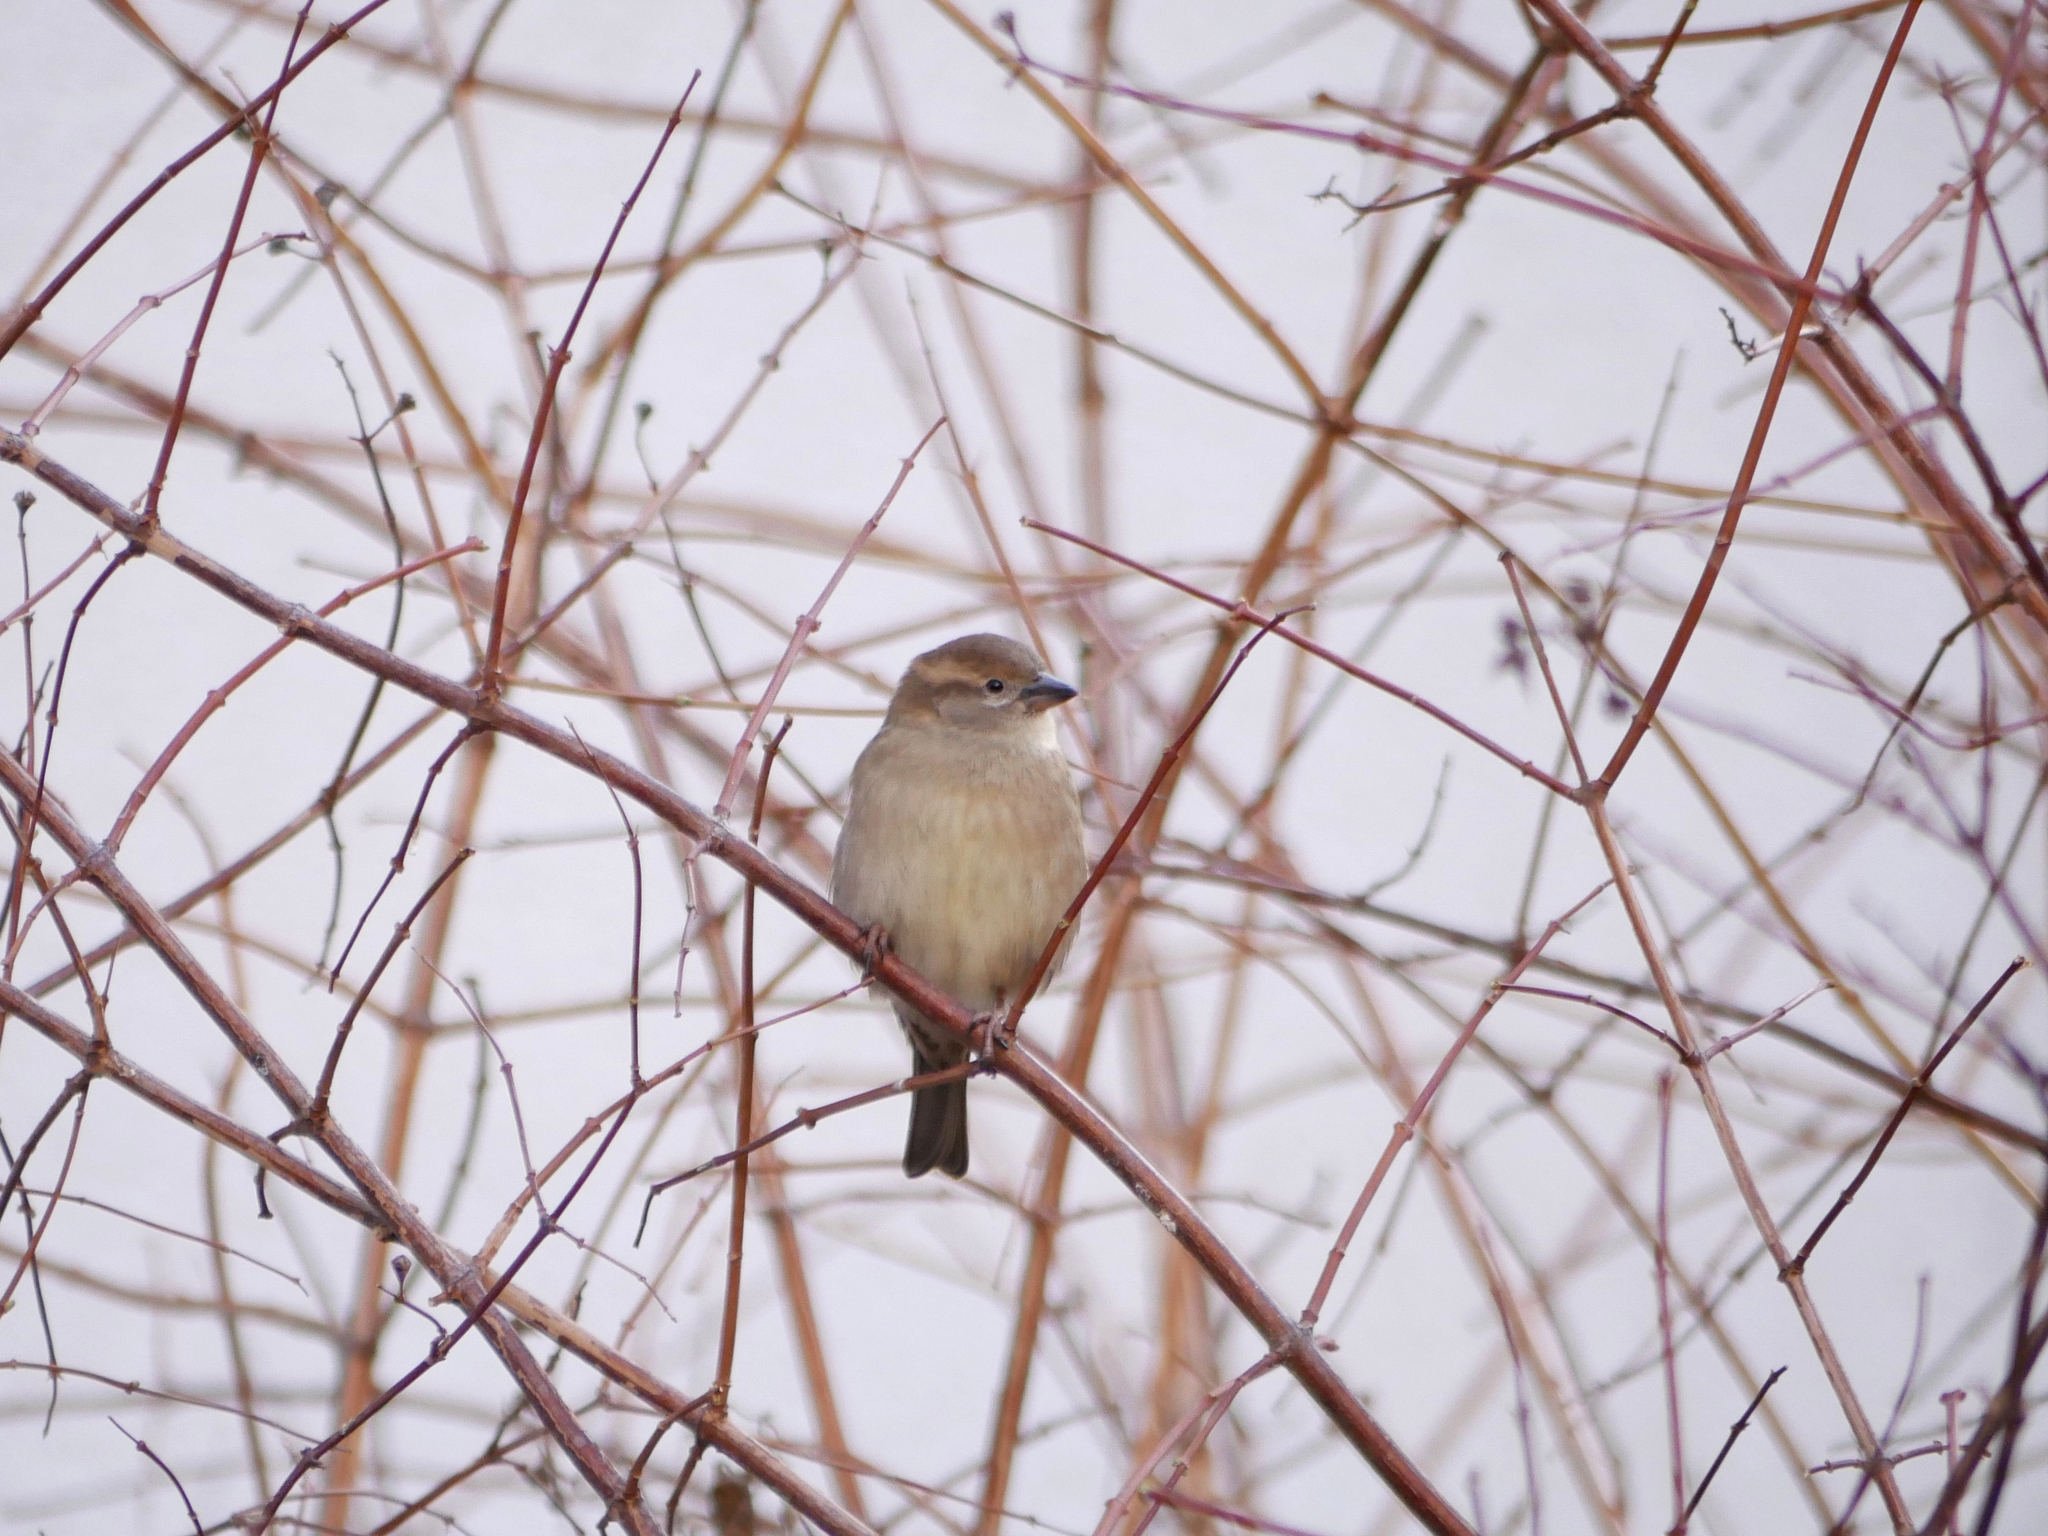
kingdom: Animalia
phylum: Chordata
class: Aves
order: Passeriformes
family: Passeridae
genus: Passer
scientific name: Passer domesticus
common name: House sparrow
